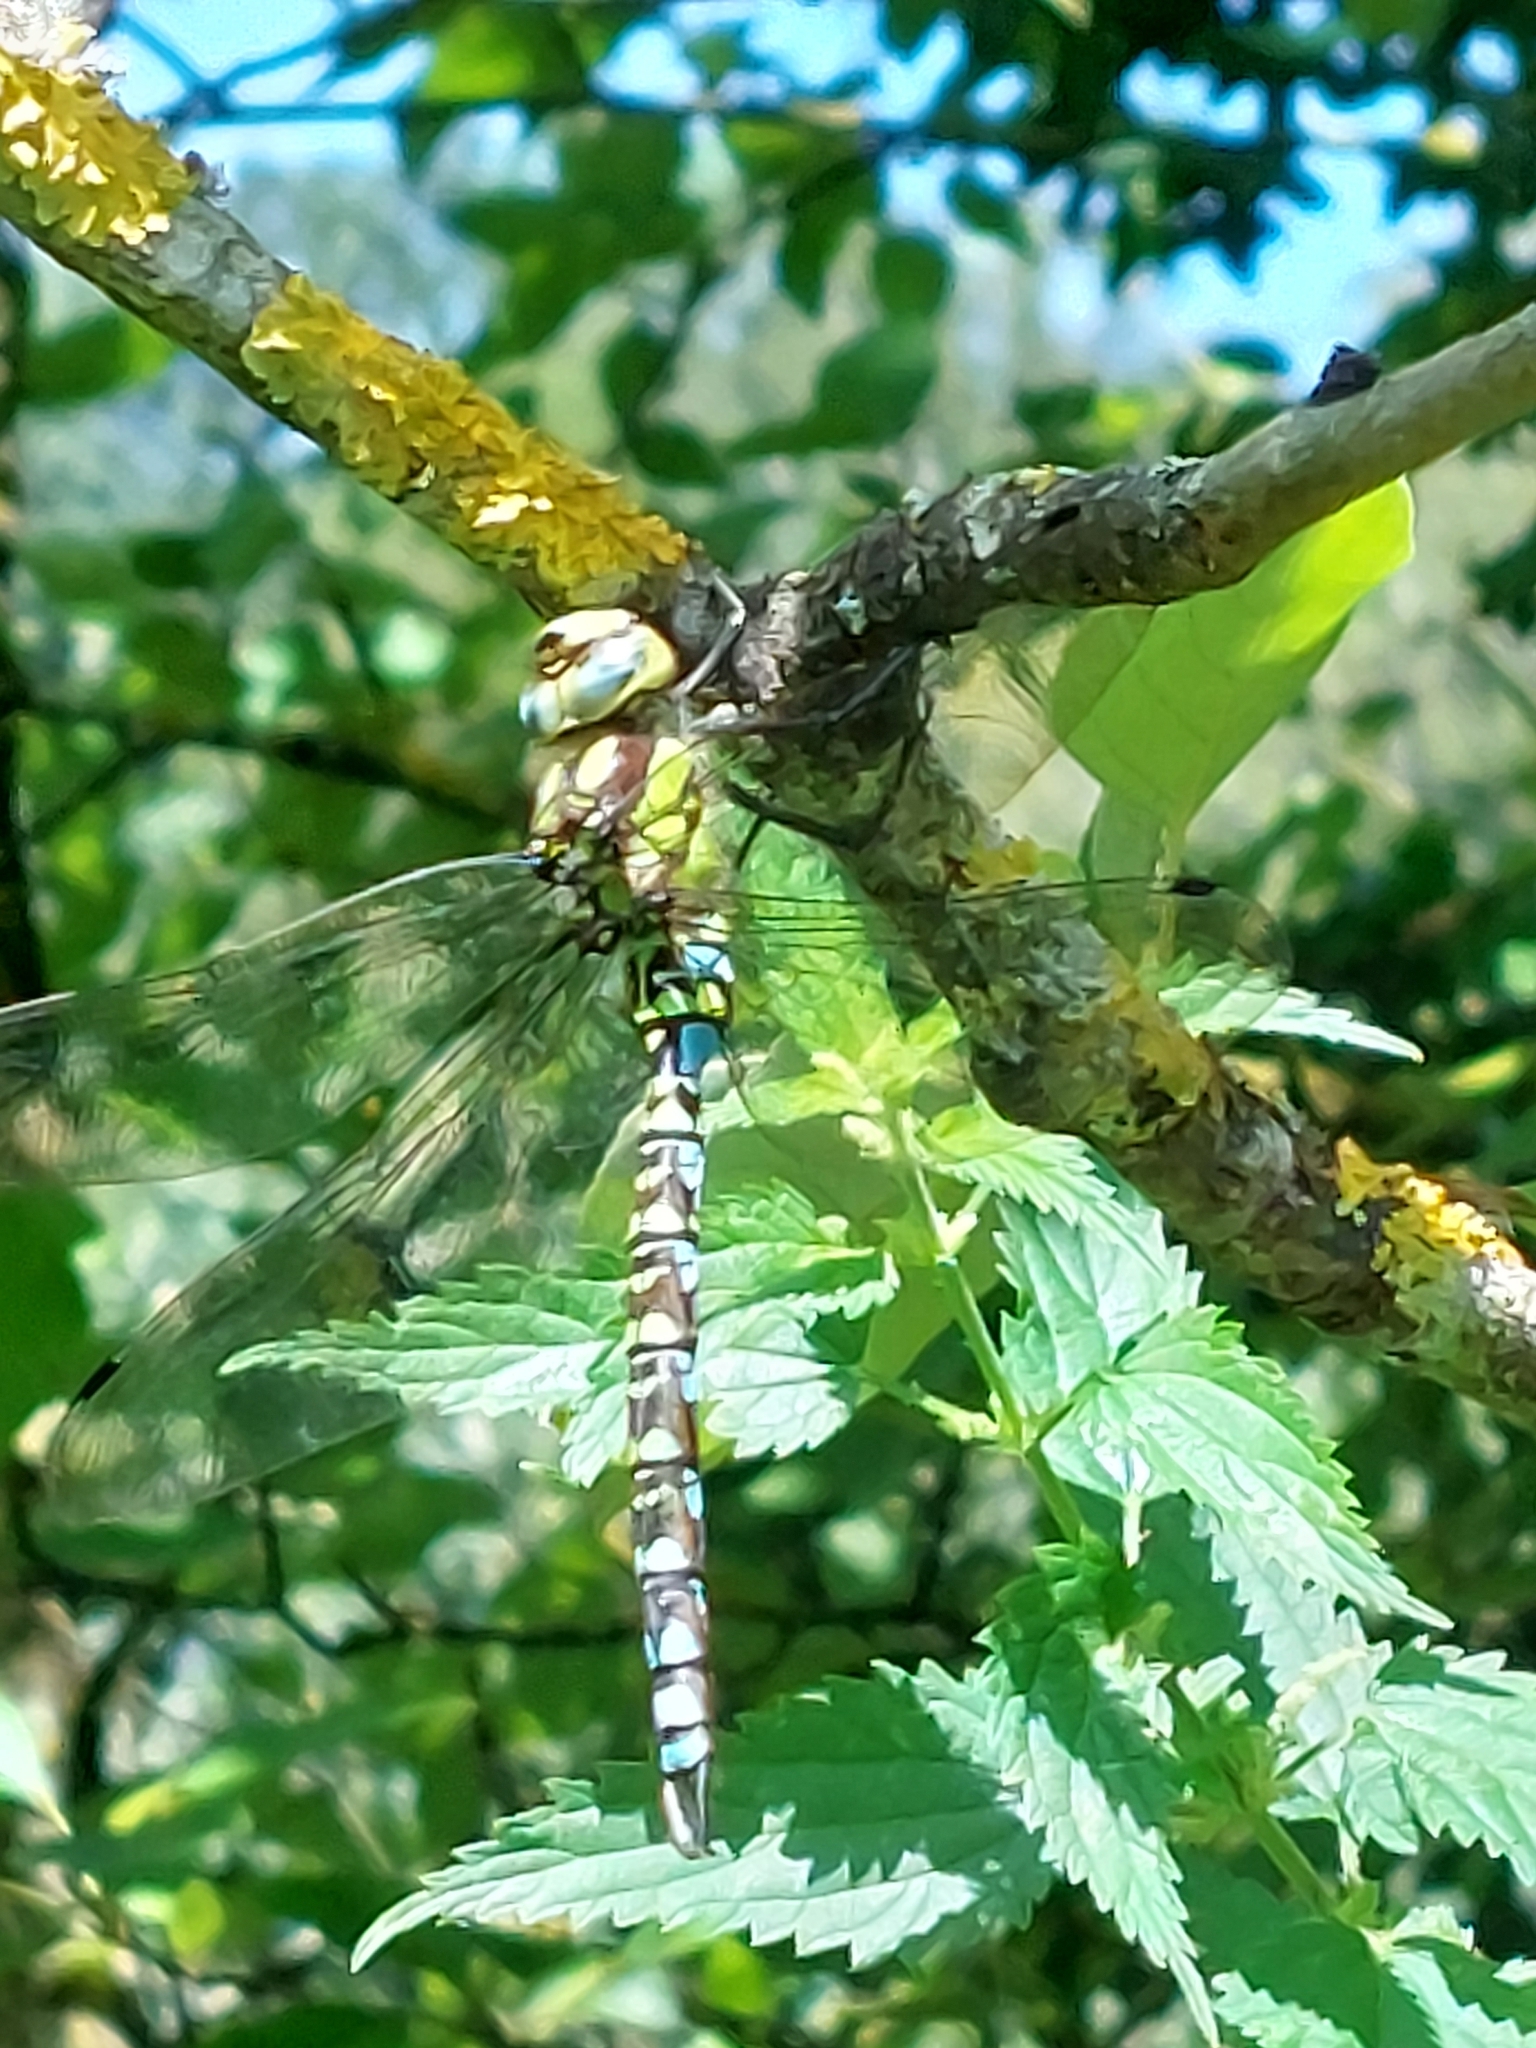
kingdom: Animalia
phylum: Arthropoda
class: Insecta
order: Odonata
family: Aeshnidae
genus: Aeshna
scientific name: Aeshna cyanea
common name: Southern hawker
